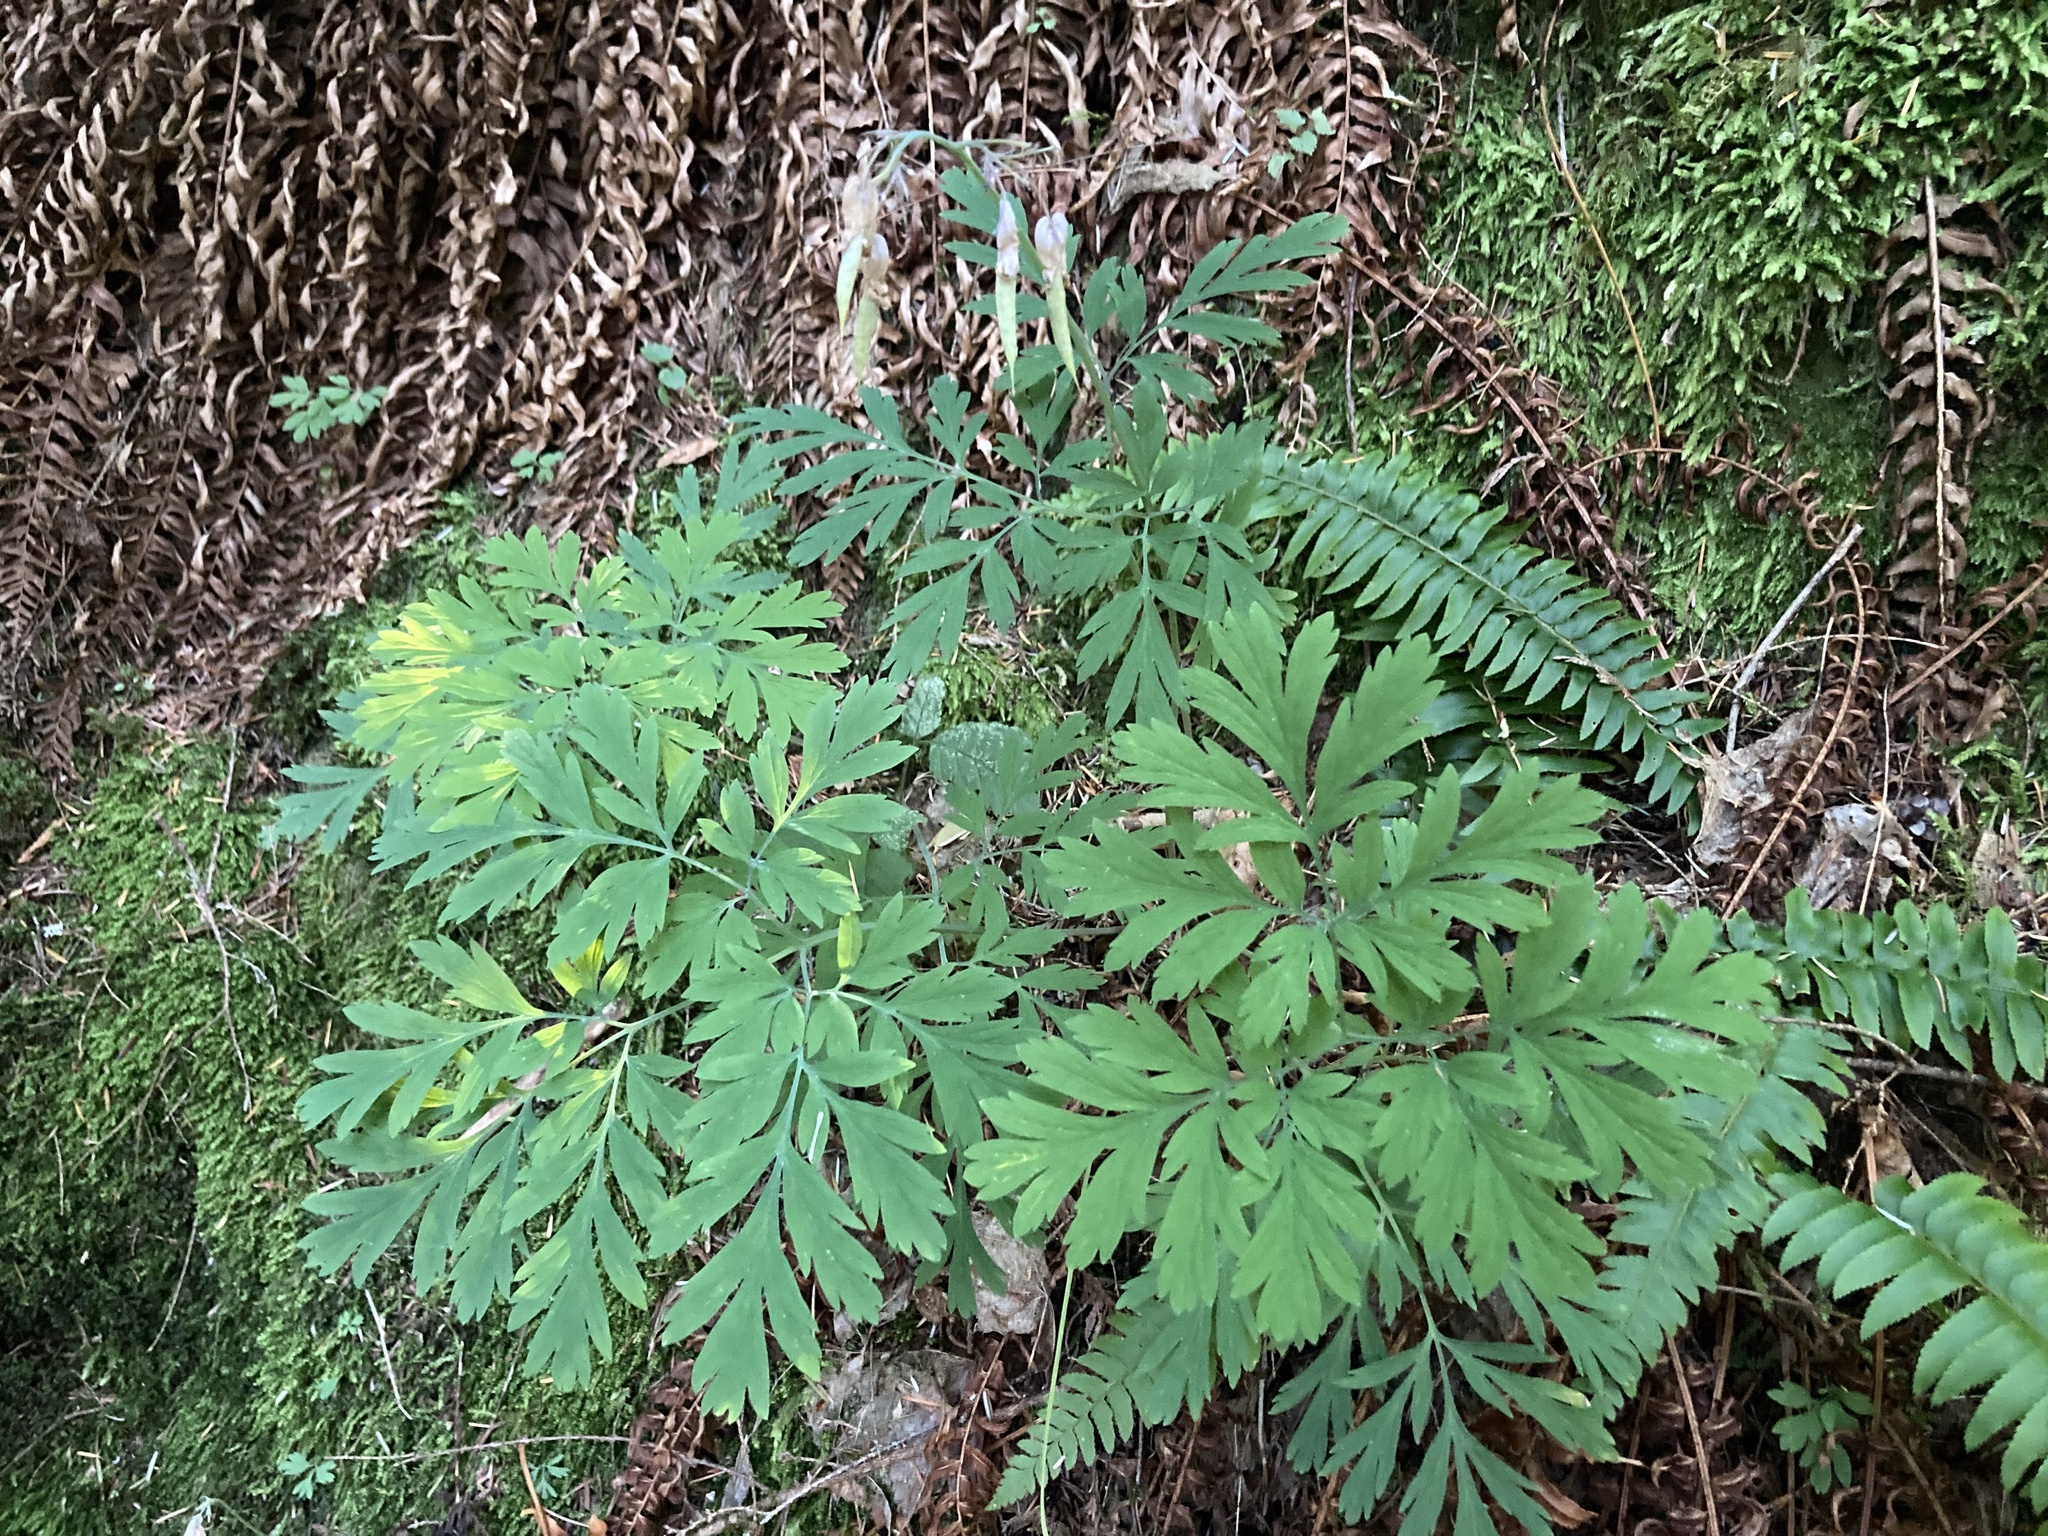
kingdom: Plantae
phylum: Tracheophyta
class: Magnoliopsida
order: Ranunculales
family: Papaveraceae
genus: Dicentra
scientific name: Dicentra formosa
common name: Bleeding-heart
